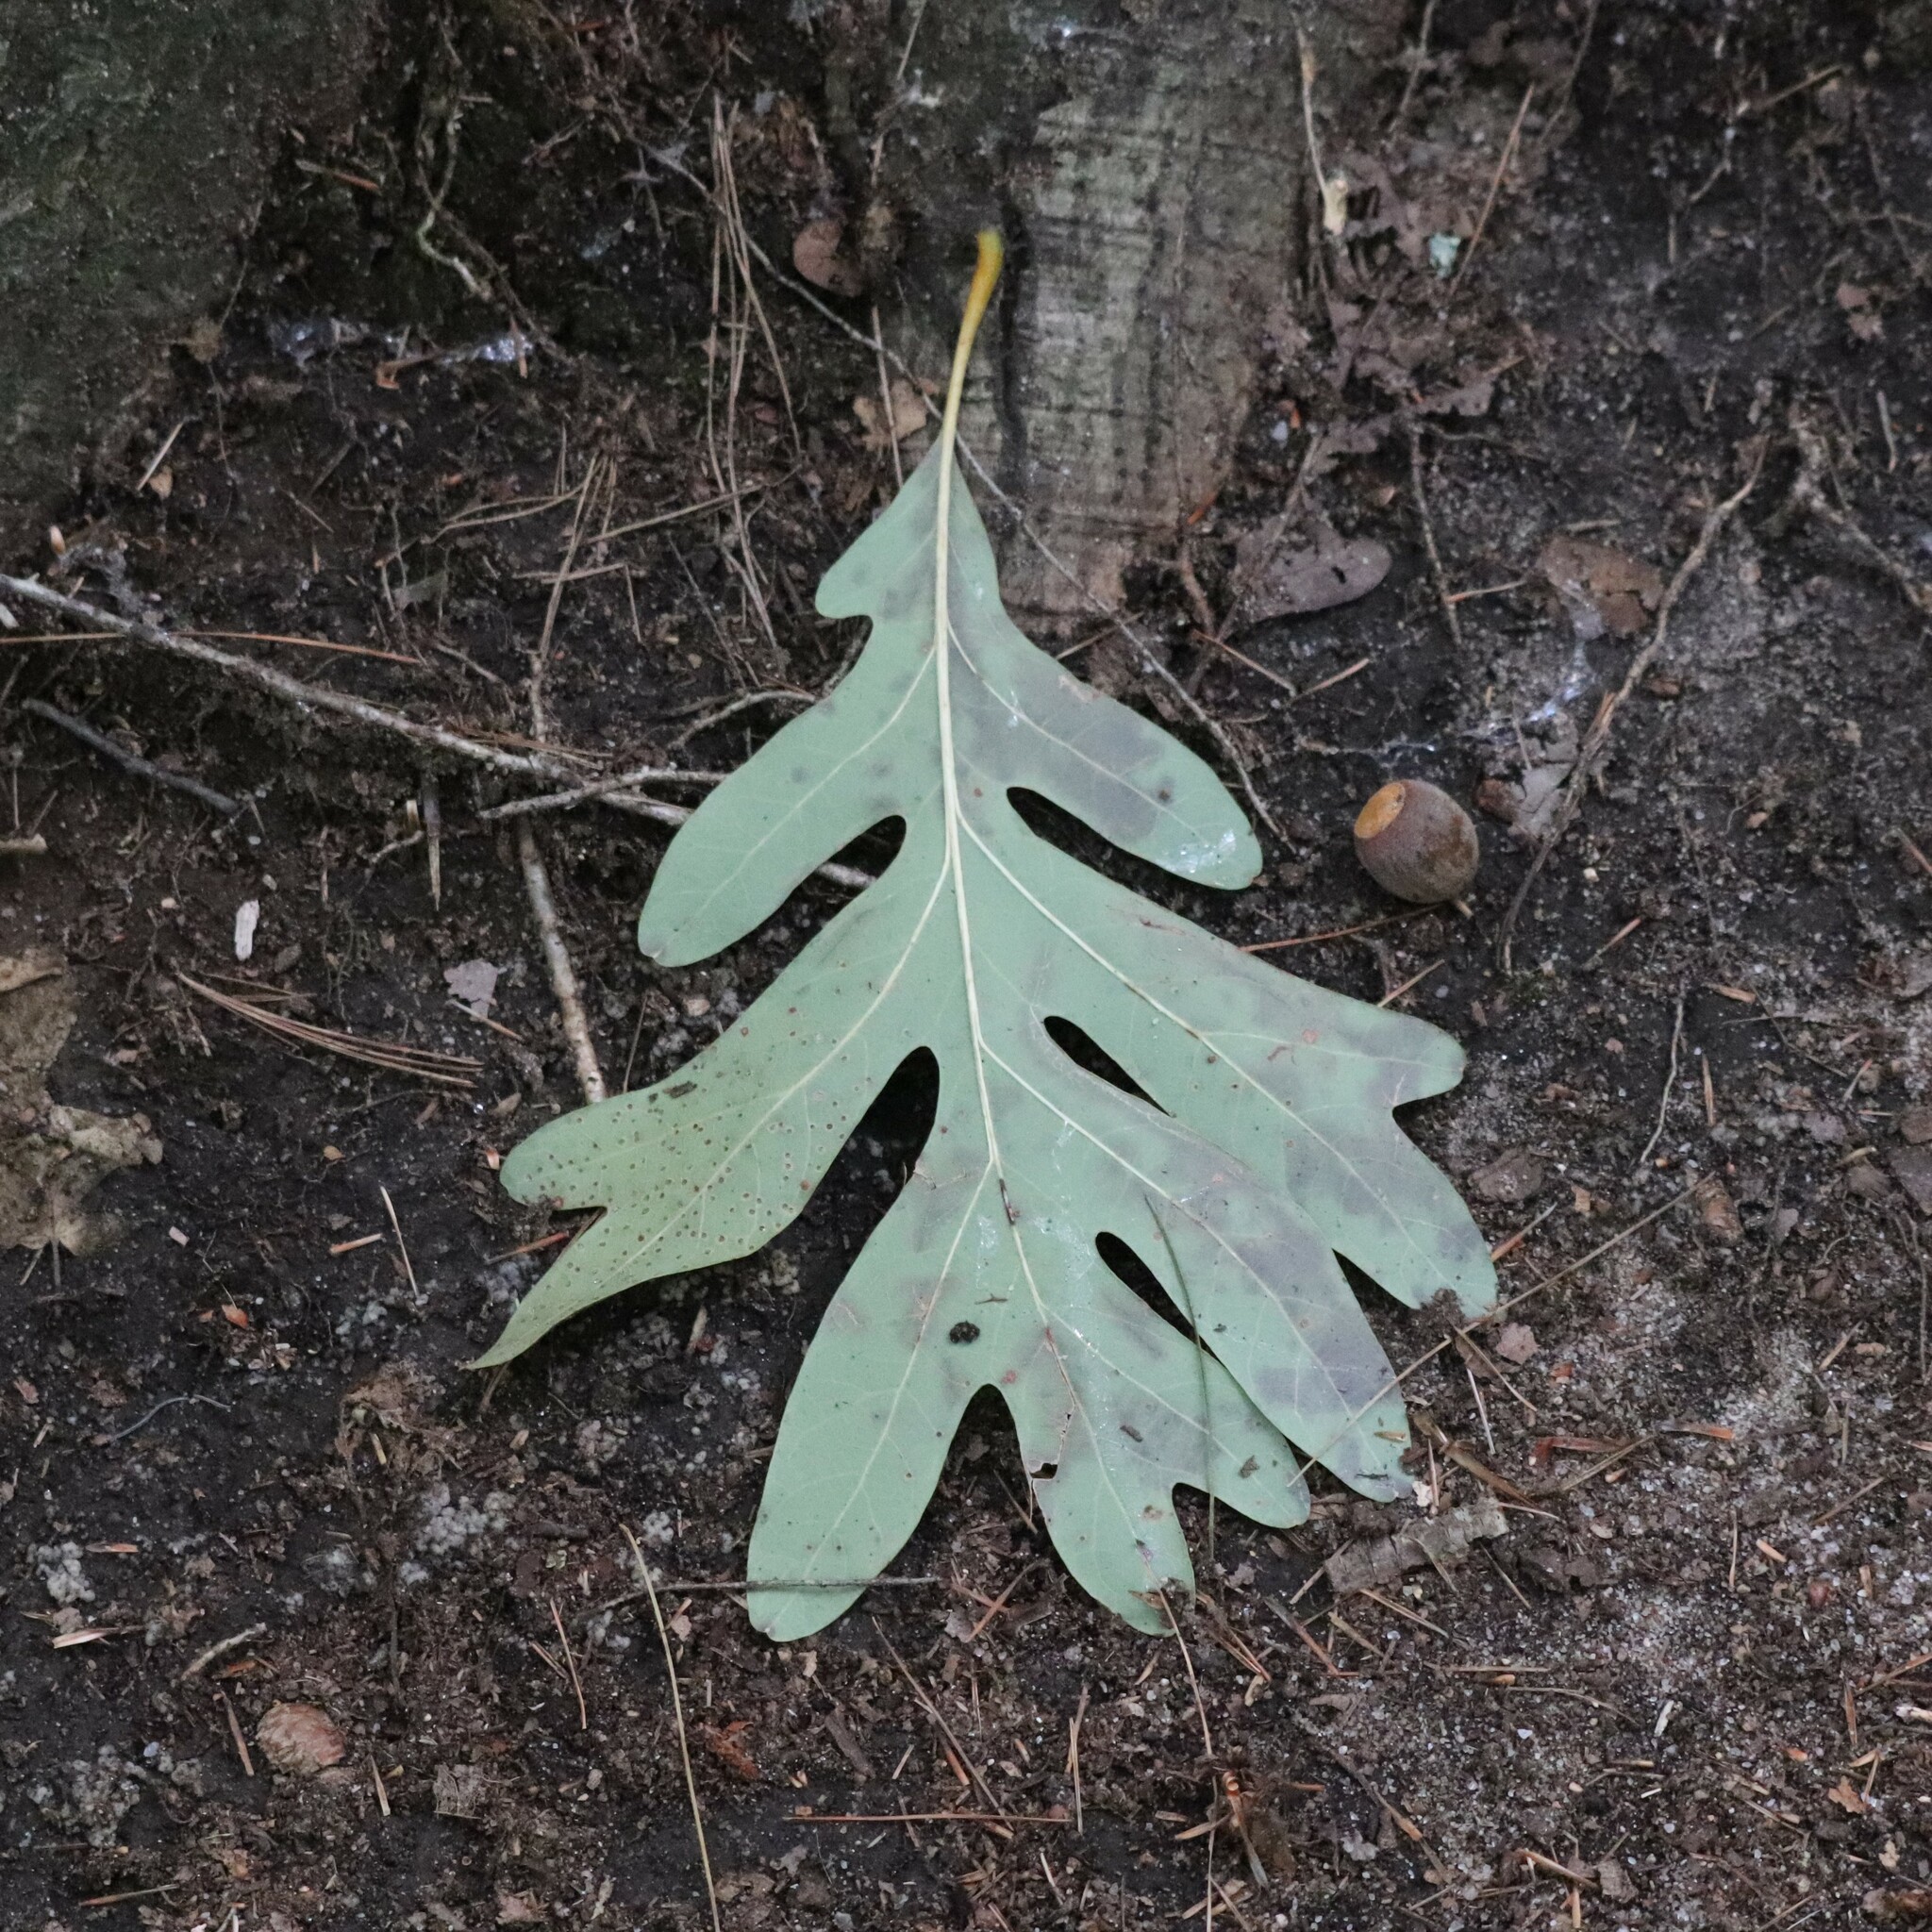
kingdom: Plantae
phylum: Tracheophyta
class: Magnoliopsida
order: Fagales
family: Fagaceae
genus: Quercus
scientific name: Quercus alba
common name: White oak
